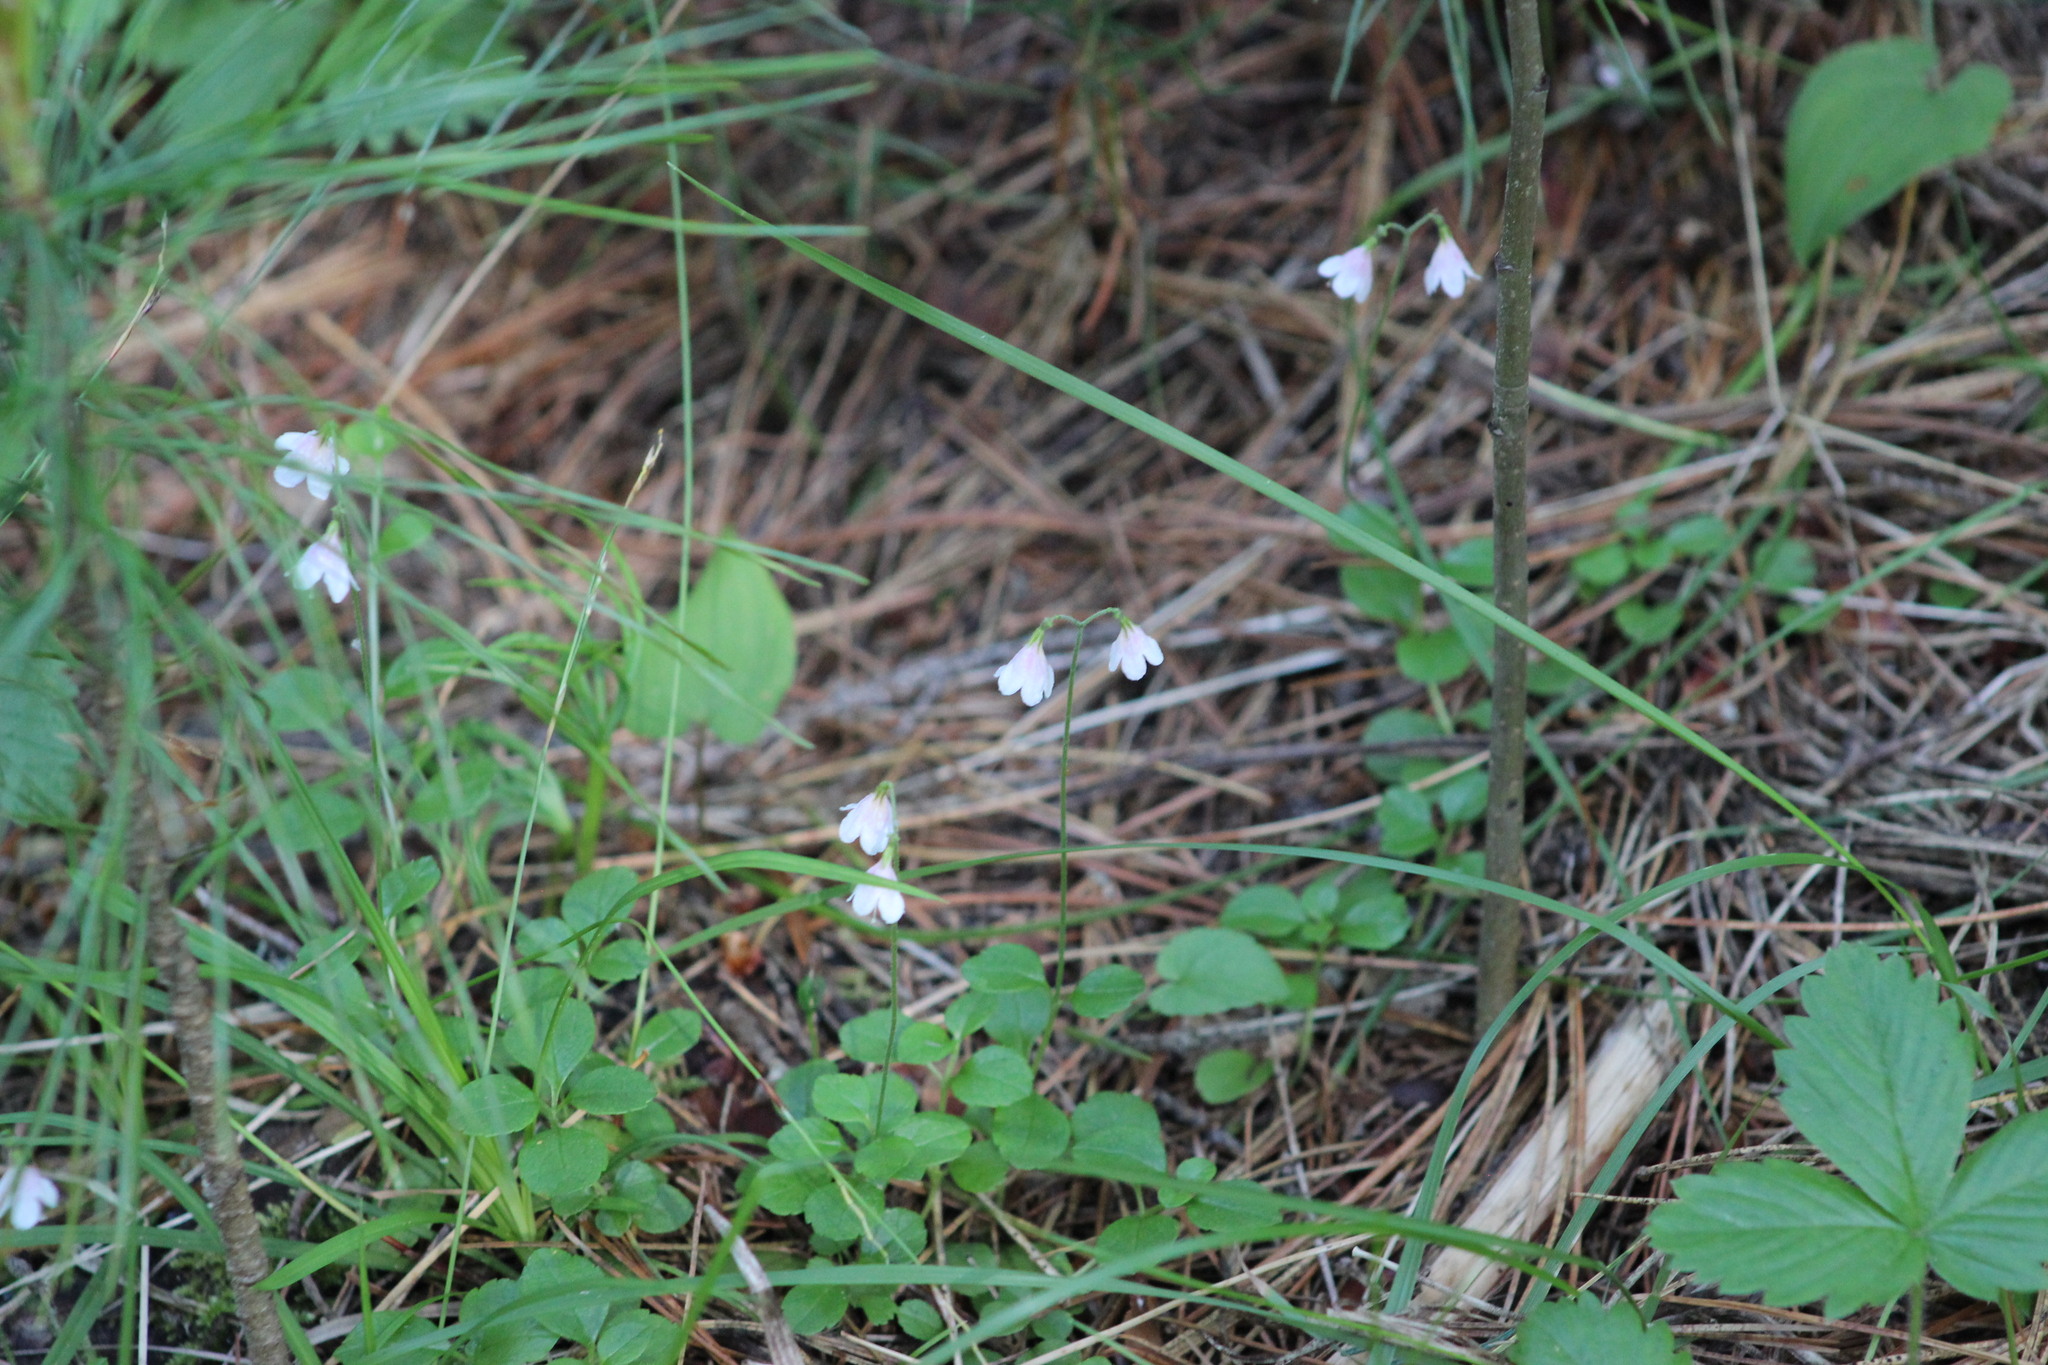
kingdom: Plantae
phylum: Tracheophyta
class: Magnoliopsida
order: Dipsacales
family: Caprifoliaceae
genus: Linnaea
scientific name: Linnaea borealis
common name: Twinflower
